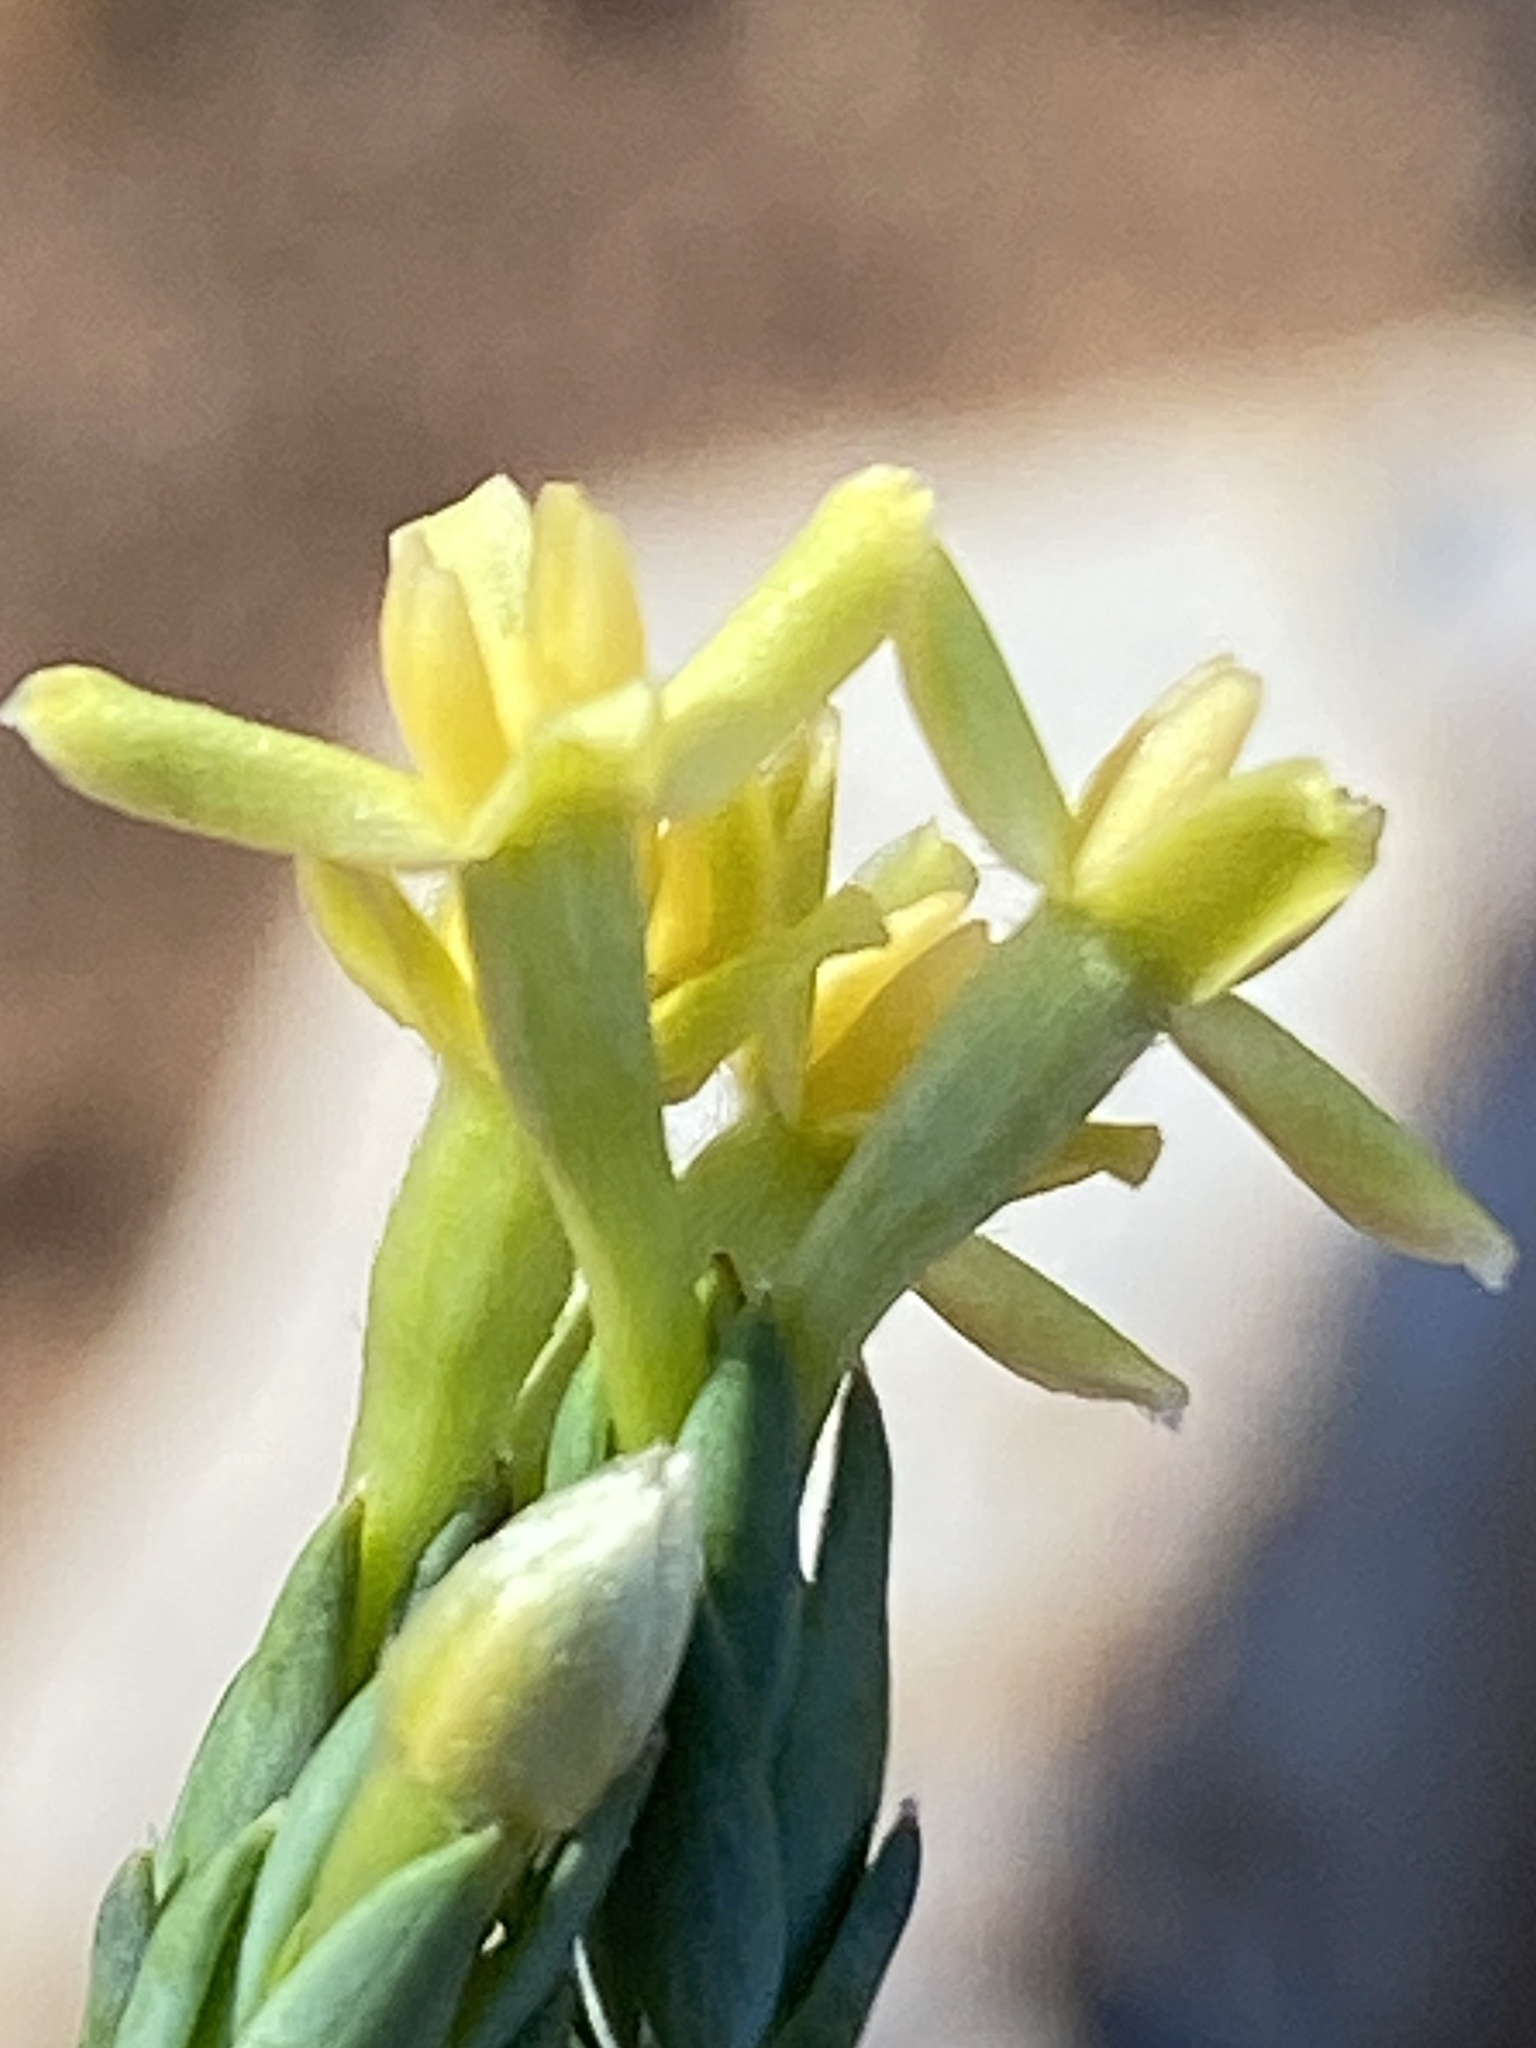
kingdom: Plantae
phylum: Tracheophyta
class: Magnoliopsida
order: Malvales
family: Thymelaeaceae
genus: Gnidia
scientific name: Gnidia leipoldtii
